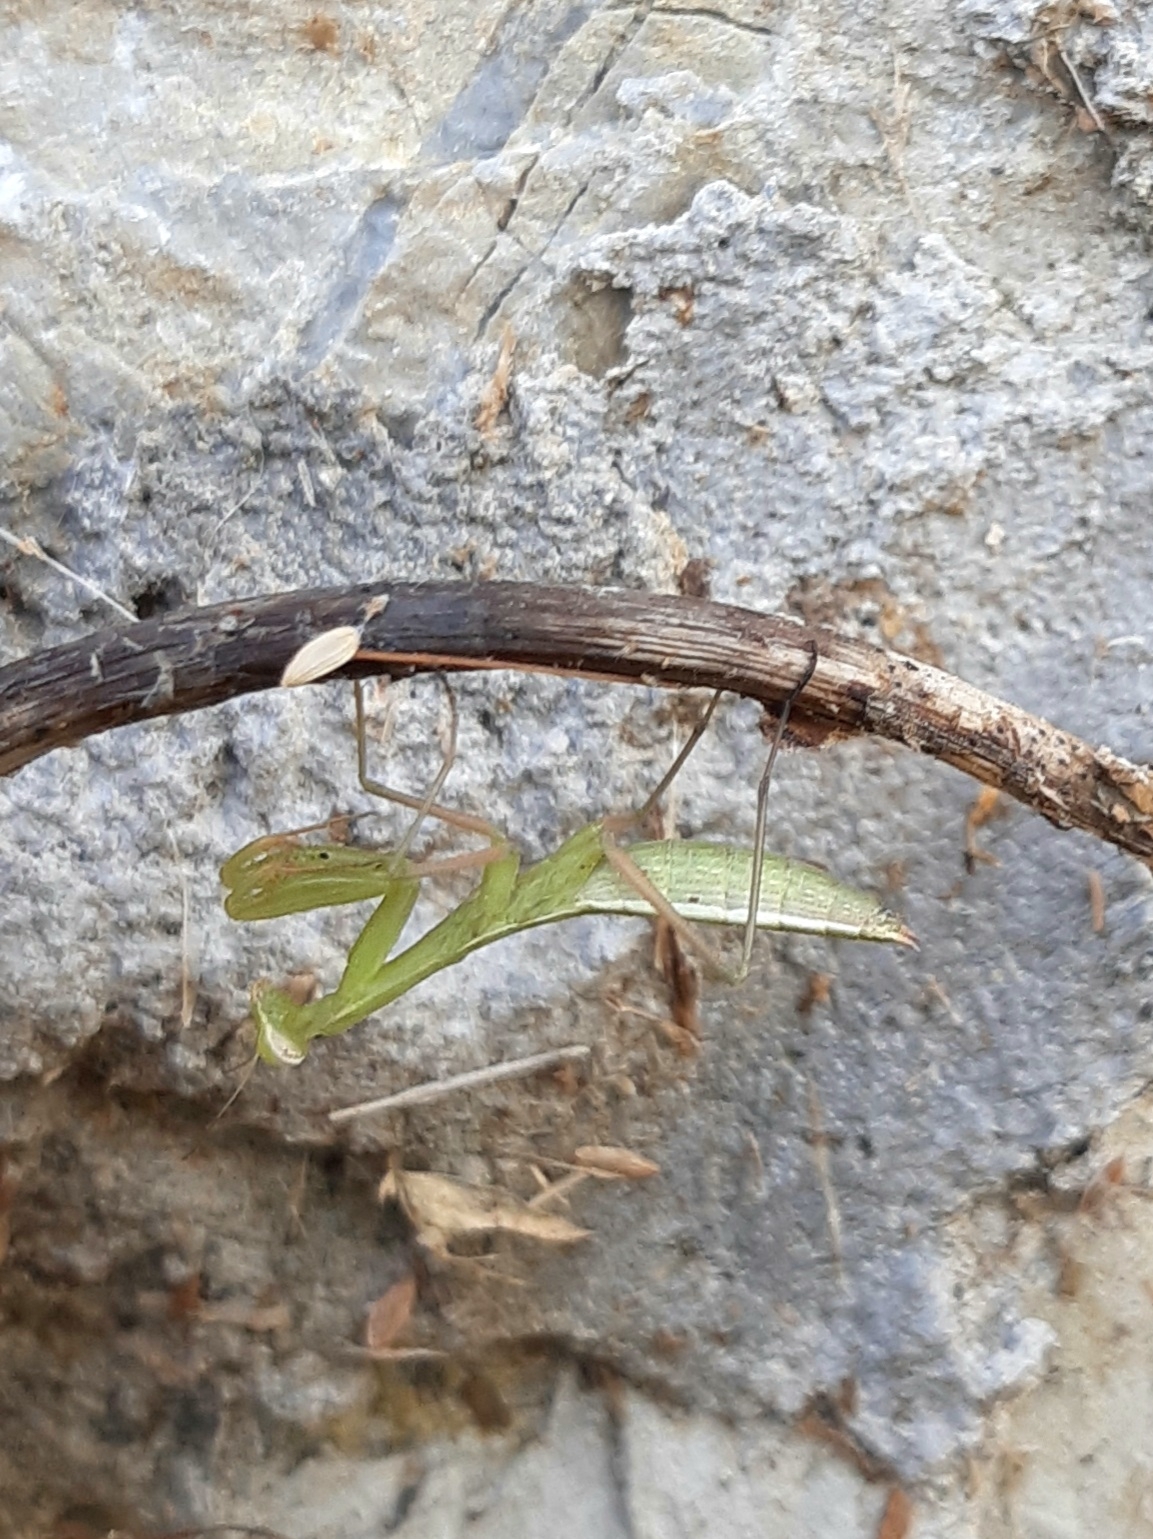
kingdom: Animalia
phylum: Arthropoda
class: Insecta
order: Mantodea
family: Mantidae
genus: Mantis
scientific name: Mantis religiosa
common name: Praying mantis
